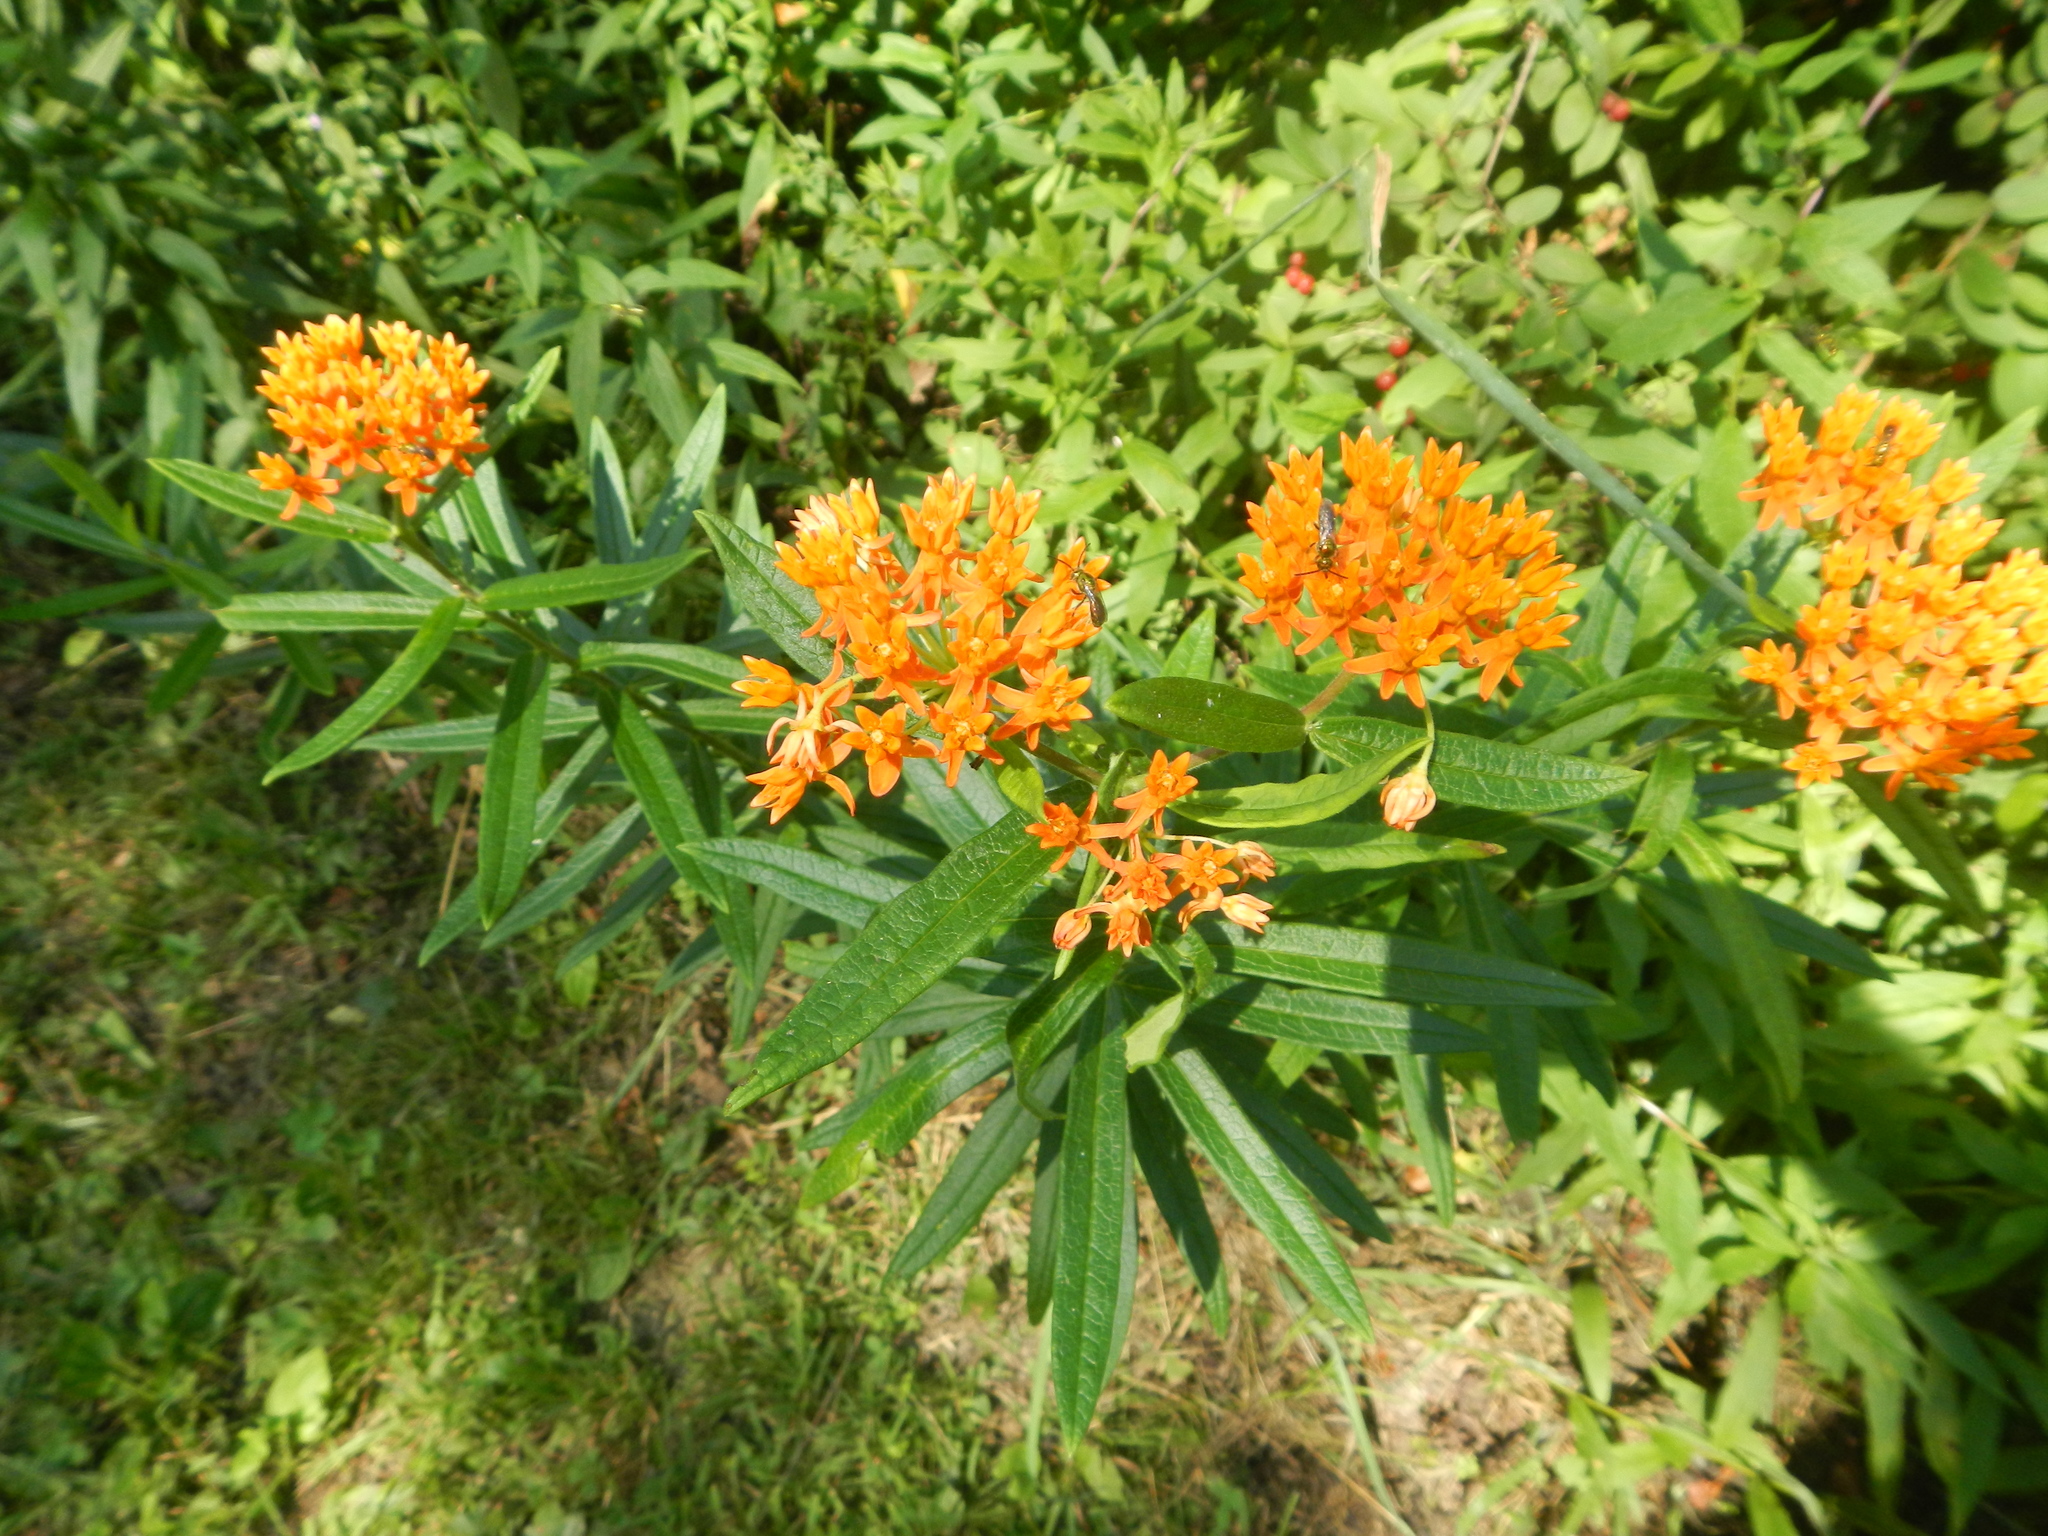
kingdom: Plantae
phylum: Tracheophyta
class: Magnoliopsida
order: Gentianales
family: Apocynaceae
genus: Asclepias
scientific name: Asclepias tuberosa
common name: Butterfly milkweed
